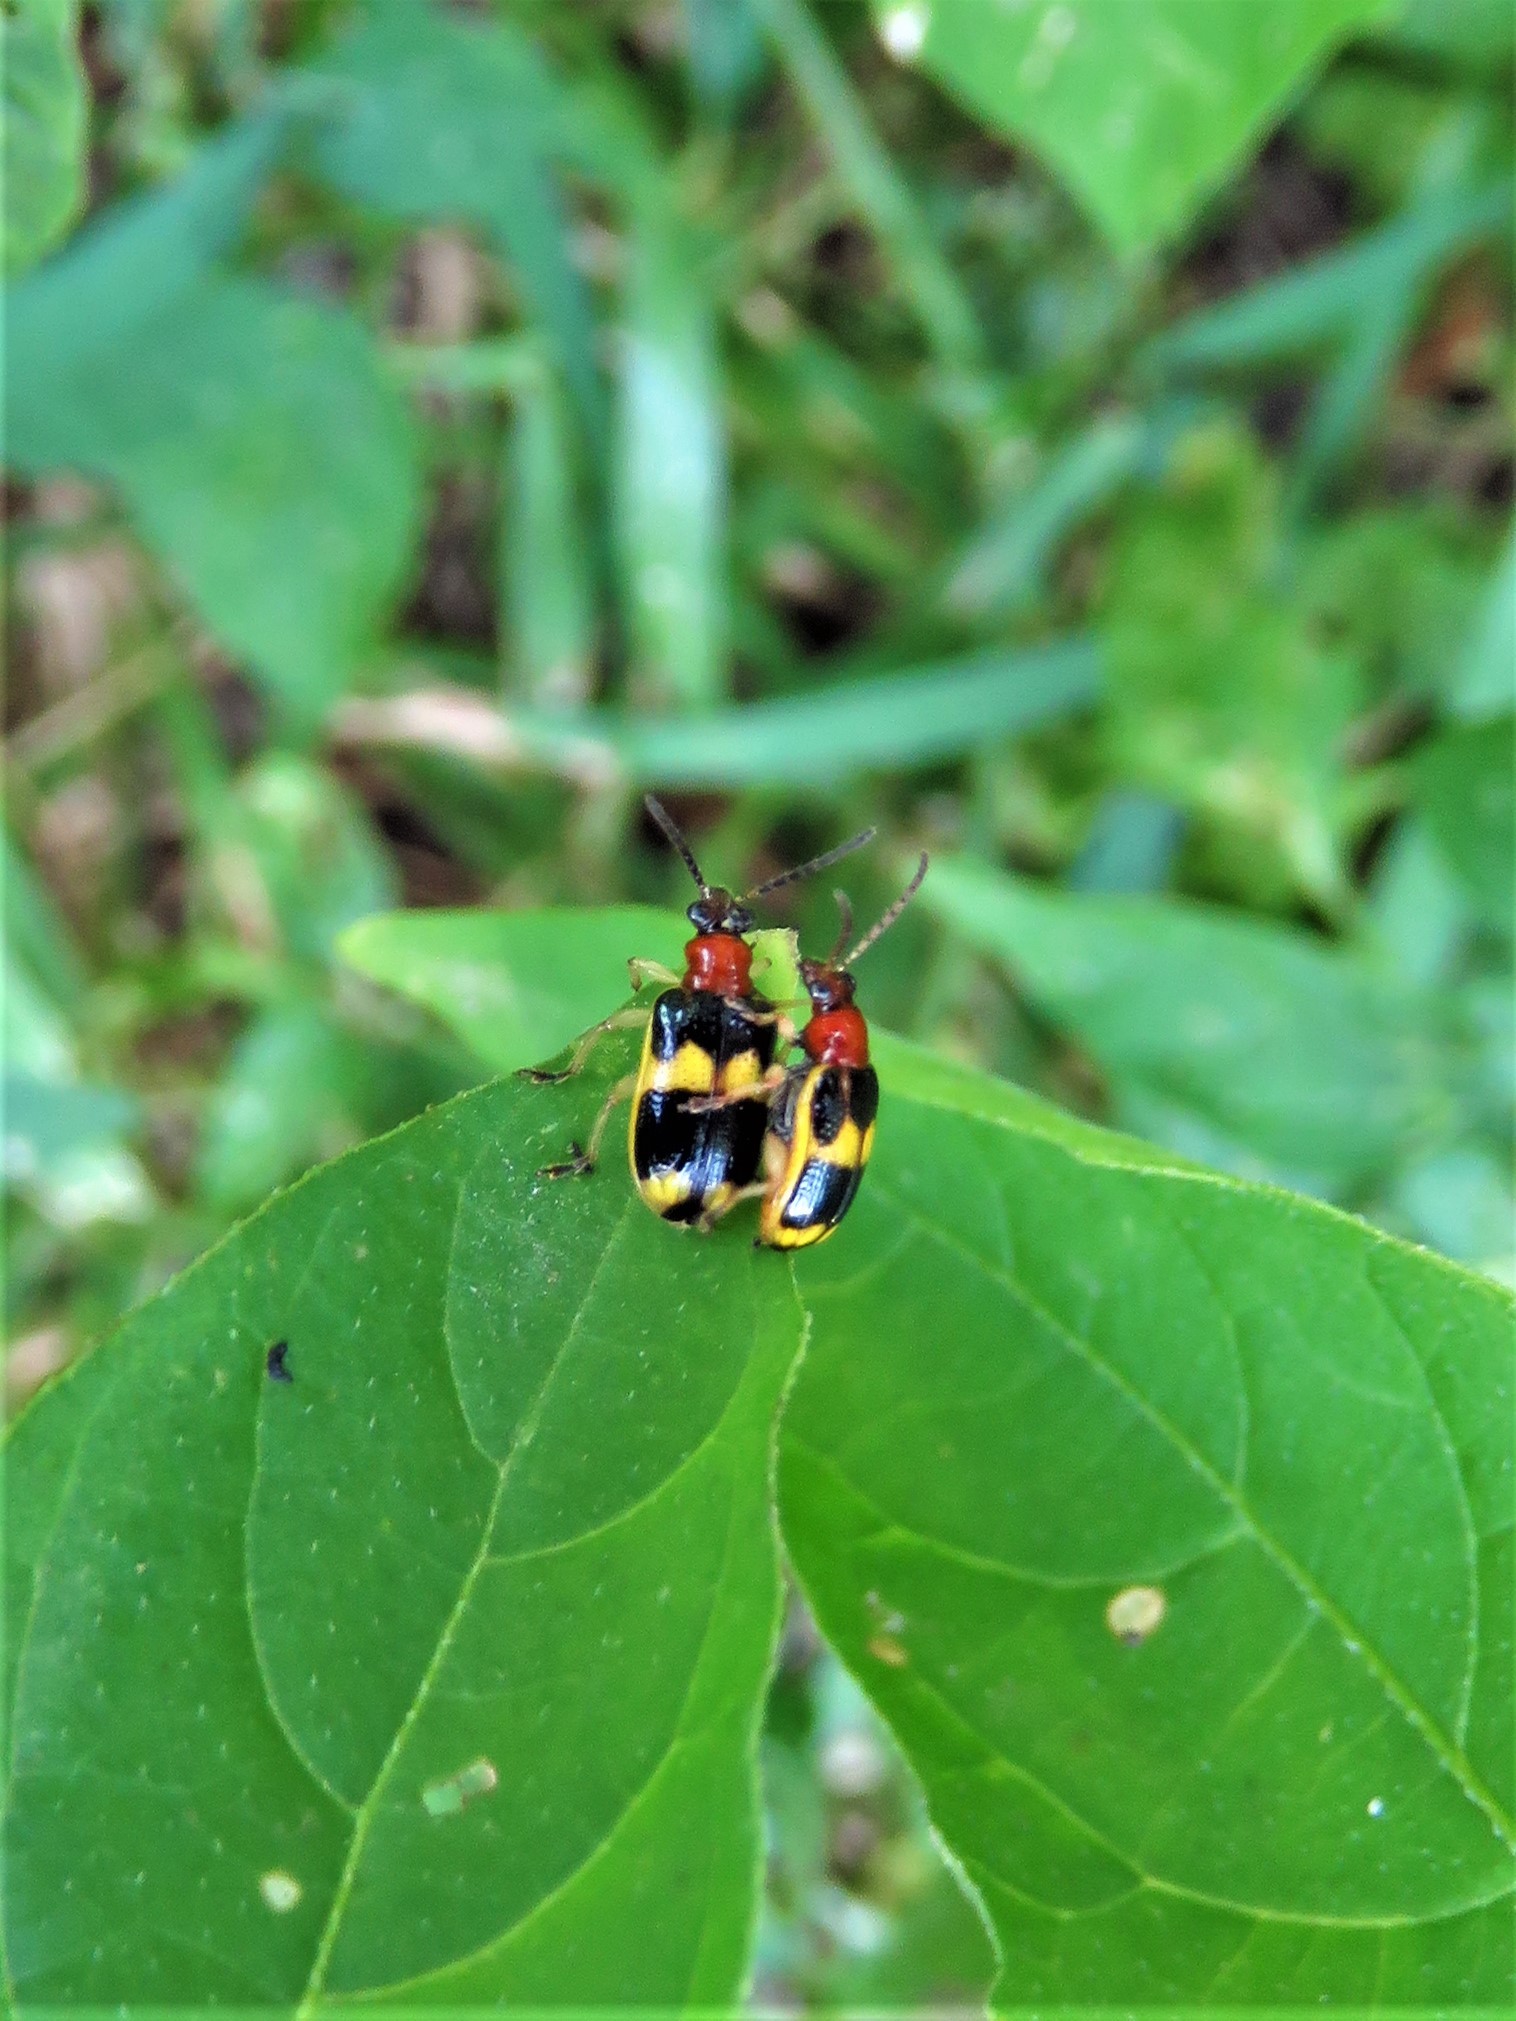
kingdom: Animalia
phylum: Arthropoda
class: Insecta
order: Coleoptera
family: Chrysomelidae
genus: Lema
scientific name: Lema opulenta
